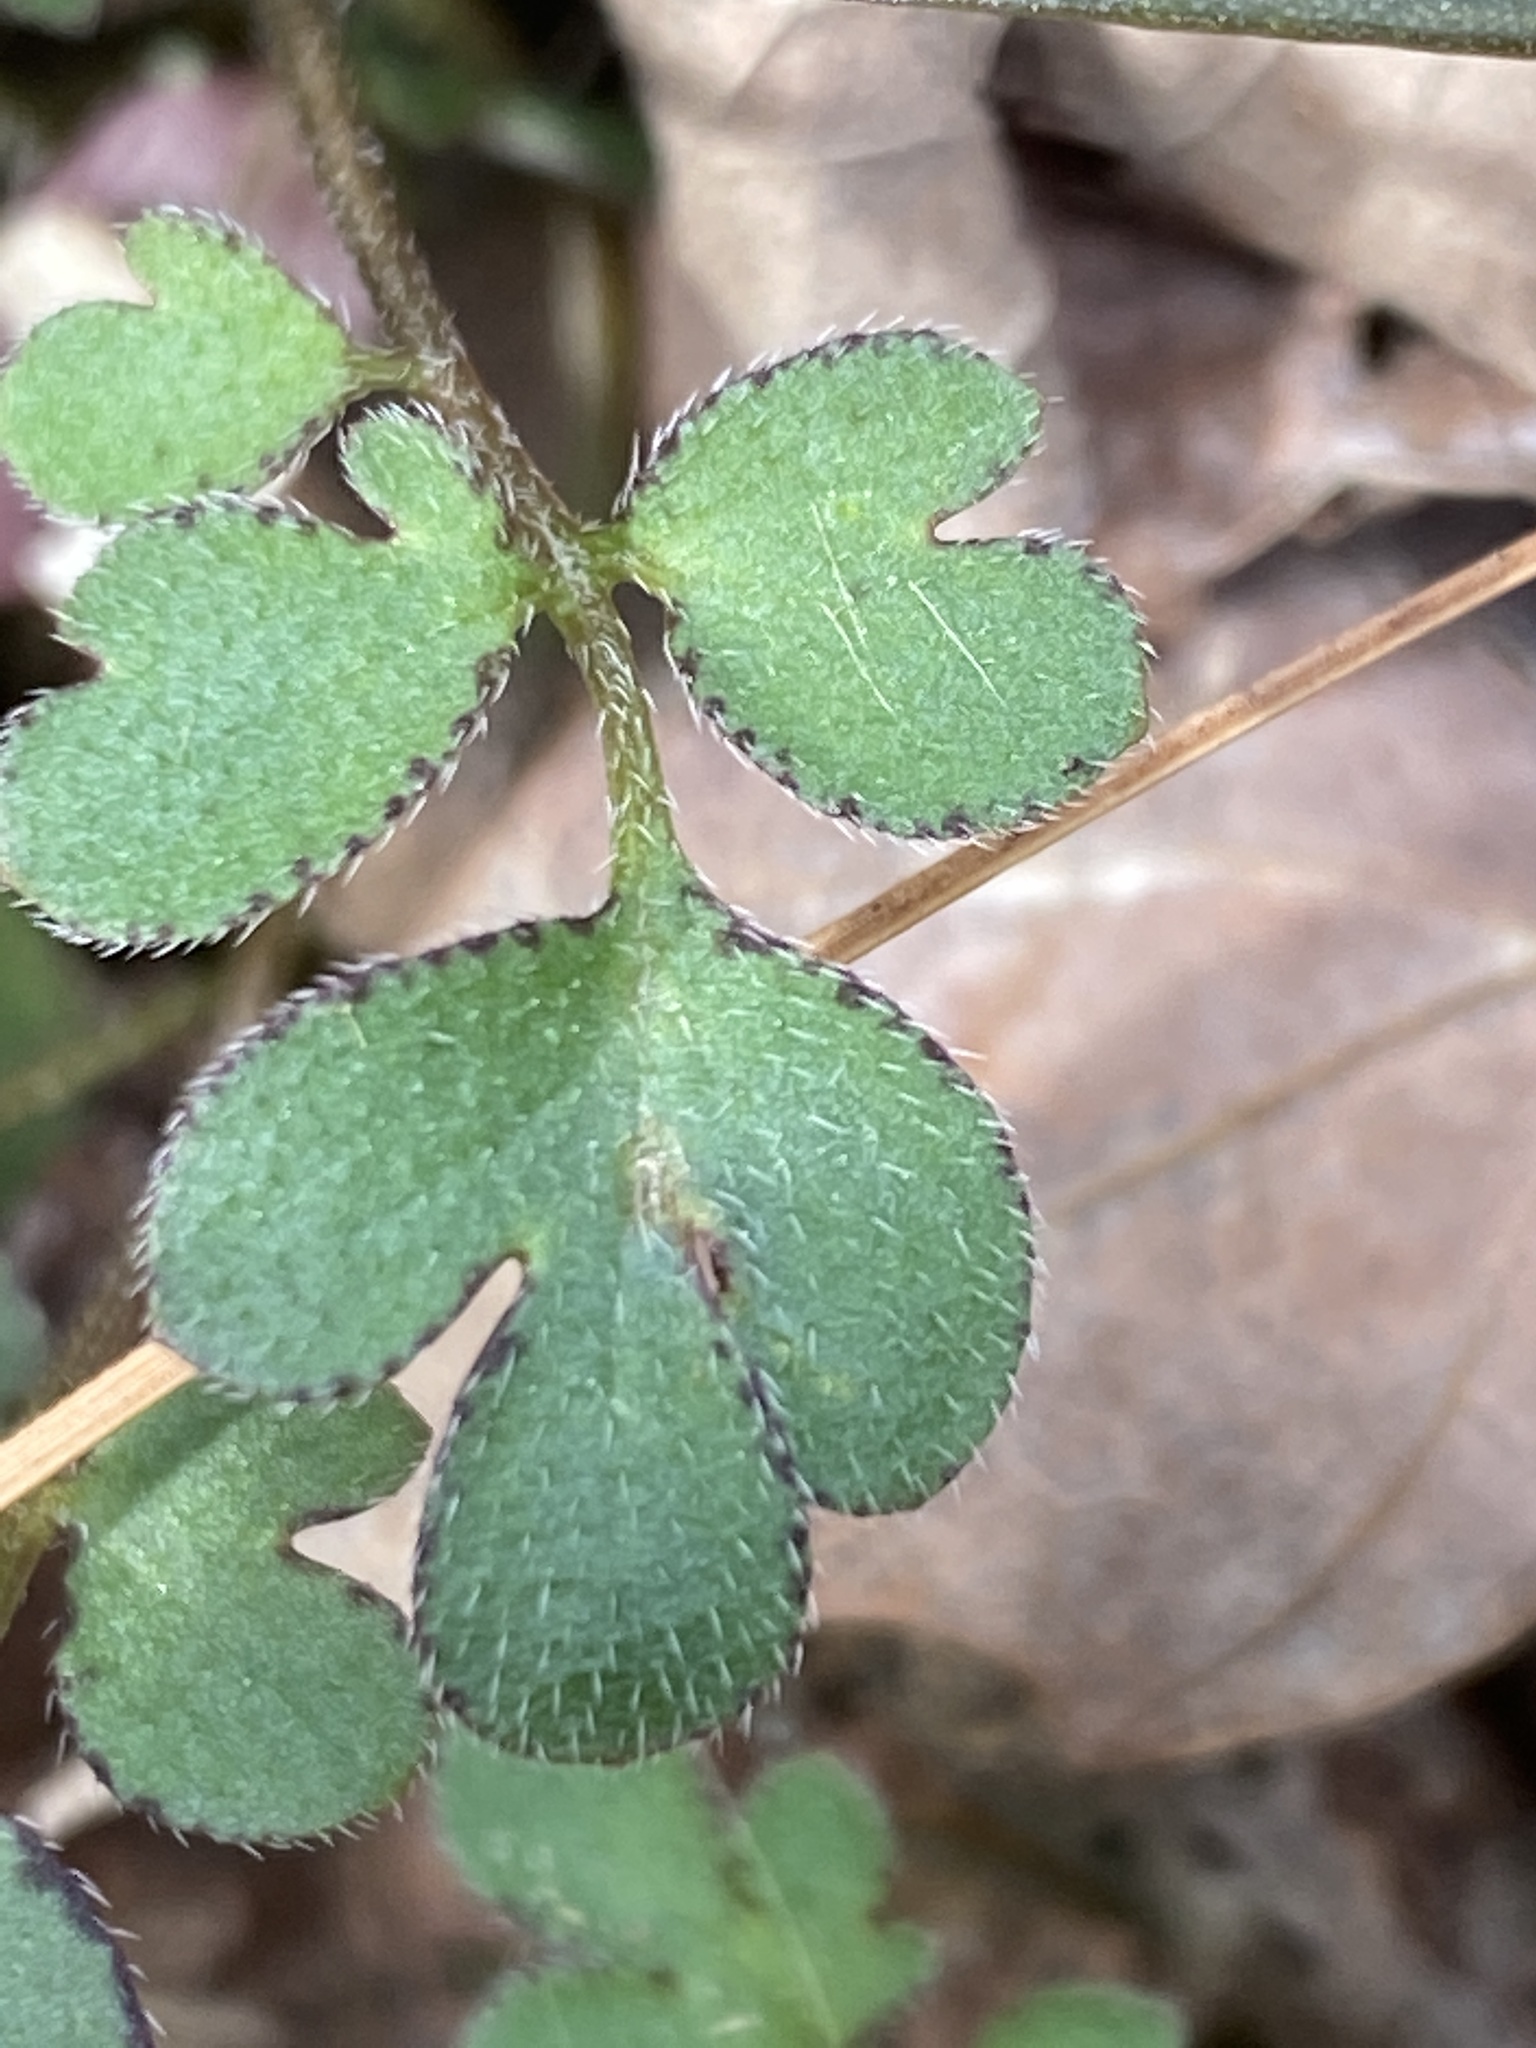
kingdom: Plantae
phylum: Tracheophyta
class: Magnoliopsida
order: Boraginales
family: Hydrophyllaceae
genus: Phacelia
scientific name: Phacelia covillei
